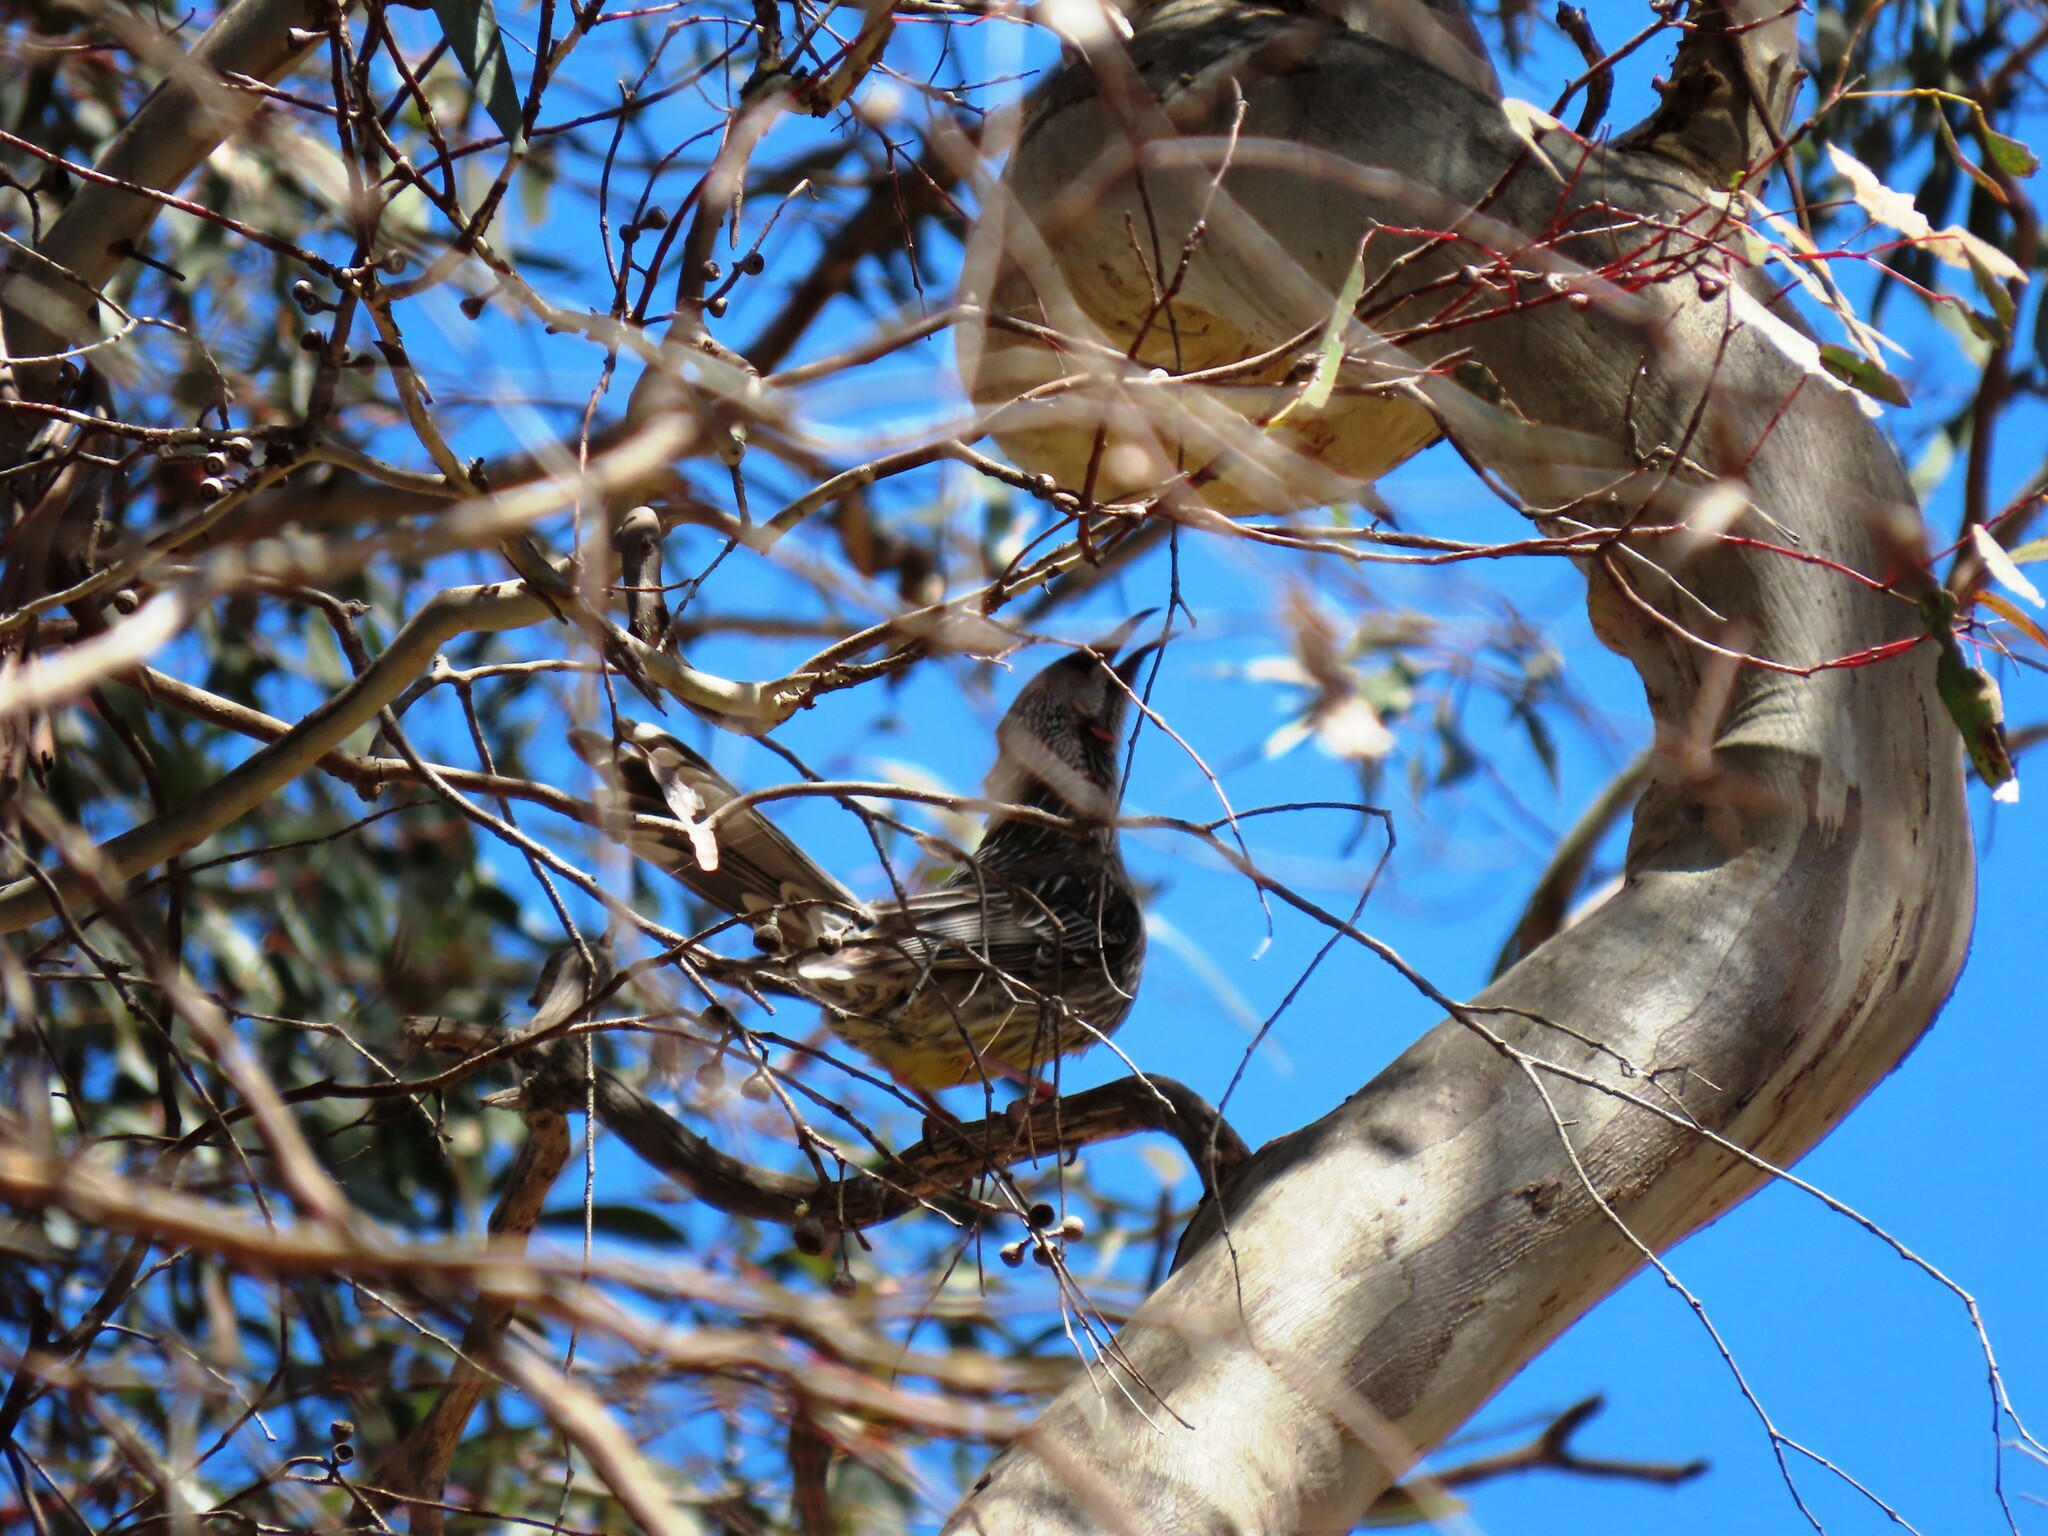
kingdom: Animalia
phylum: Chordata
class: Aves
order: Passeriformes
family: Meliphagidae
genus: Anthochaera
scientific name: Anthochaera carunculata
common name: Red wattlebird
